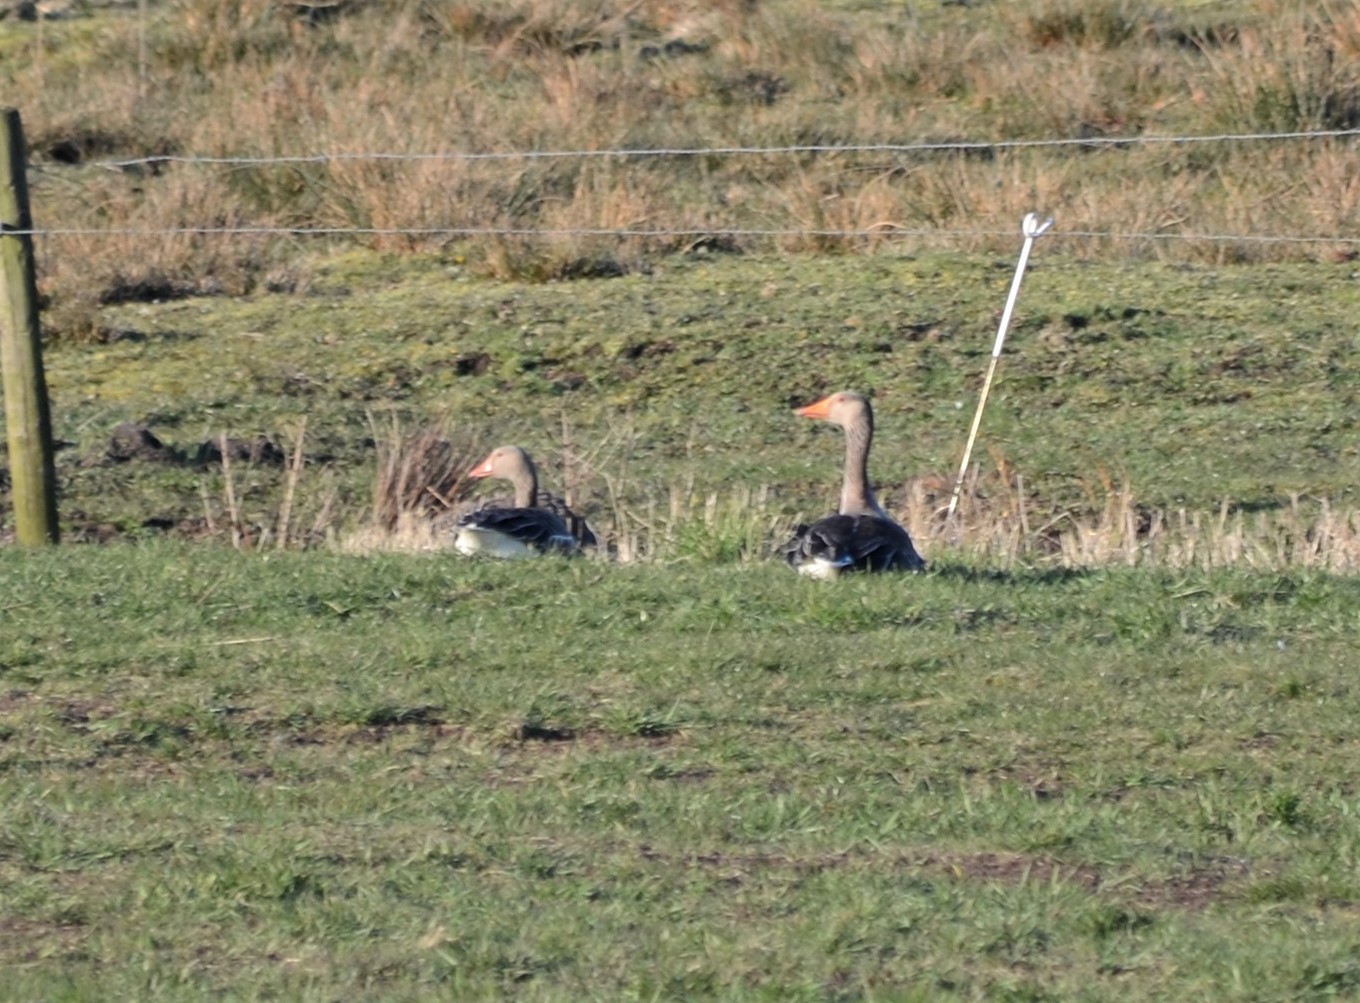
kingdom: Animalia
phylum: Chordata
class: Aves
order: Anseriformes
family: Anatidae
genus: Anser
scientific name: Anser anser
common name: Greylag goose
